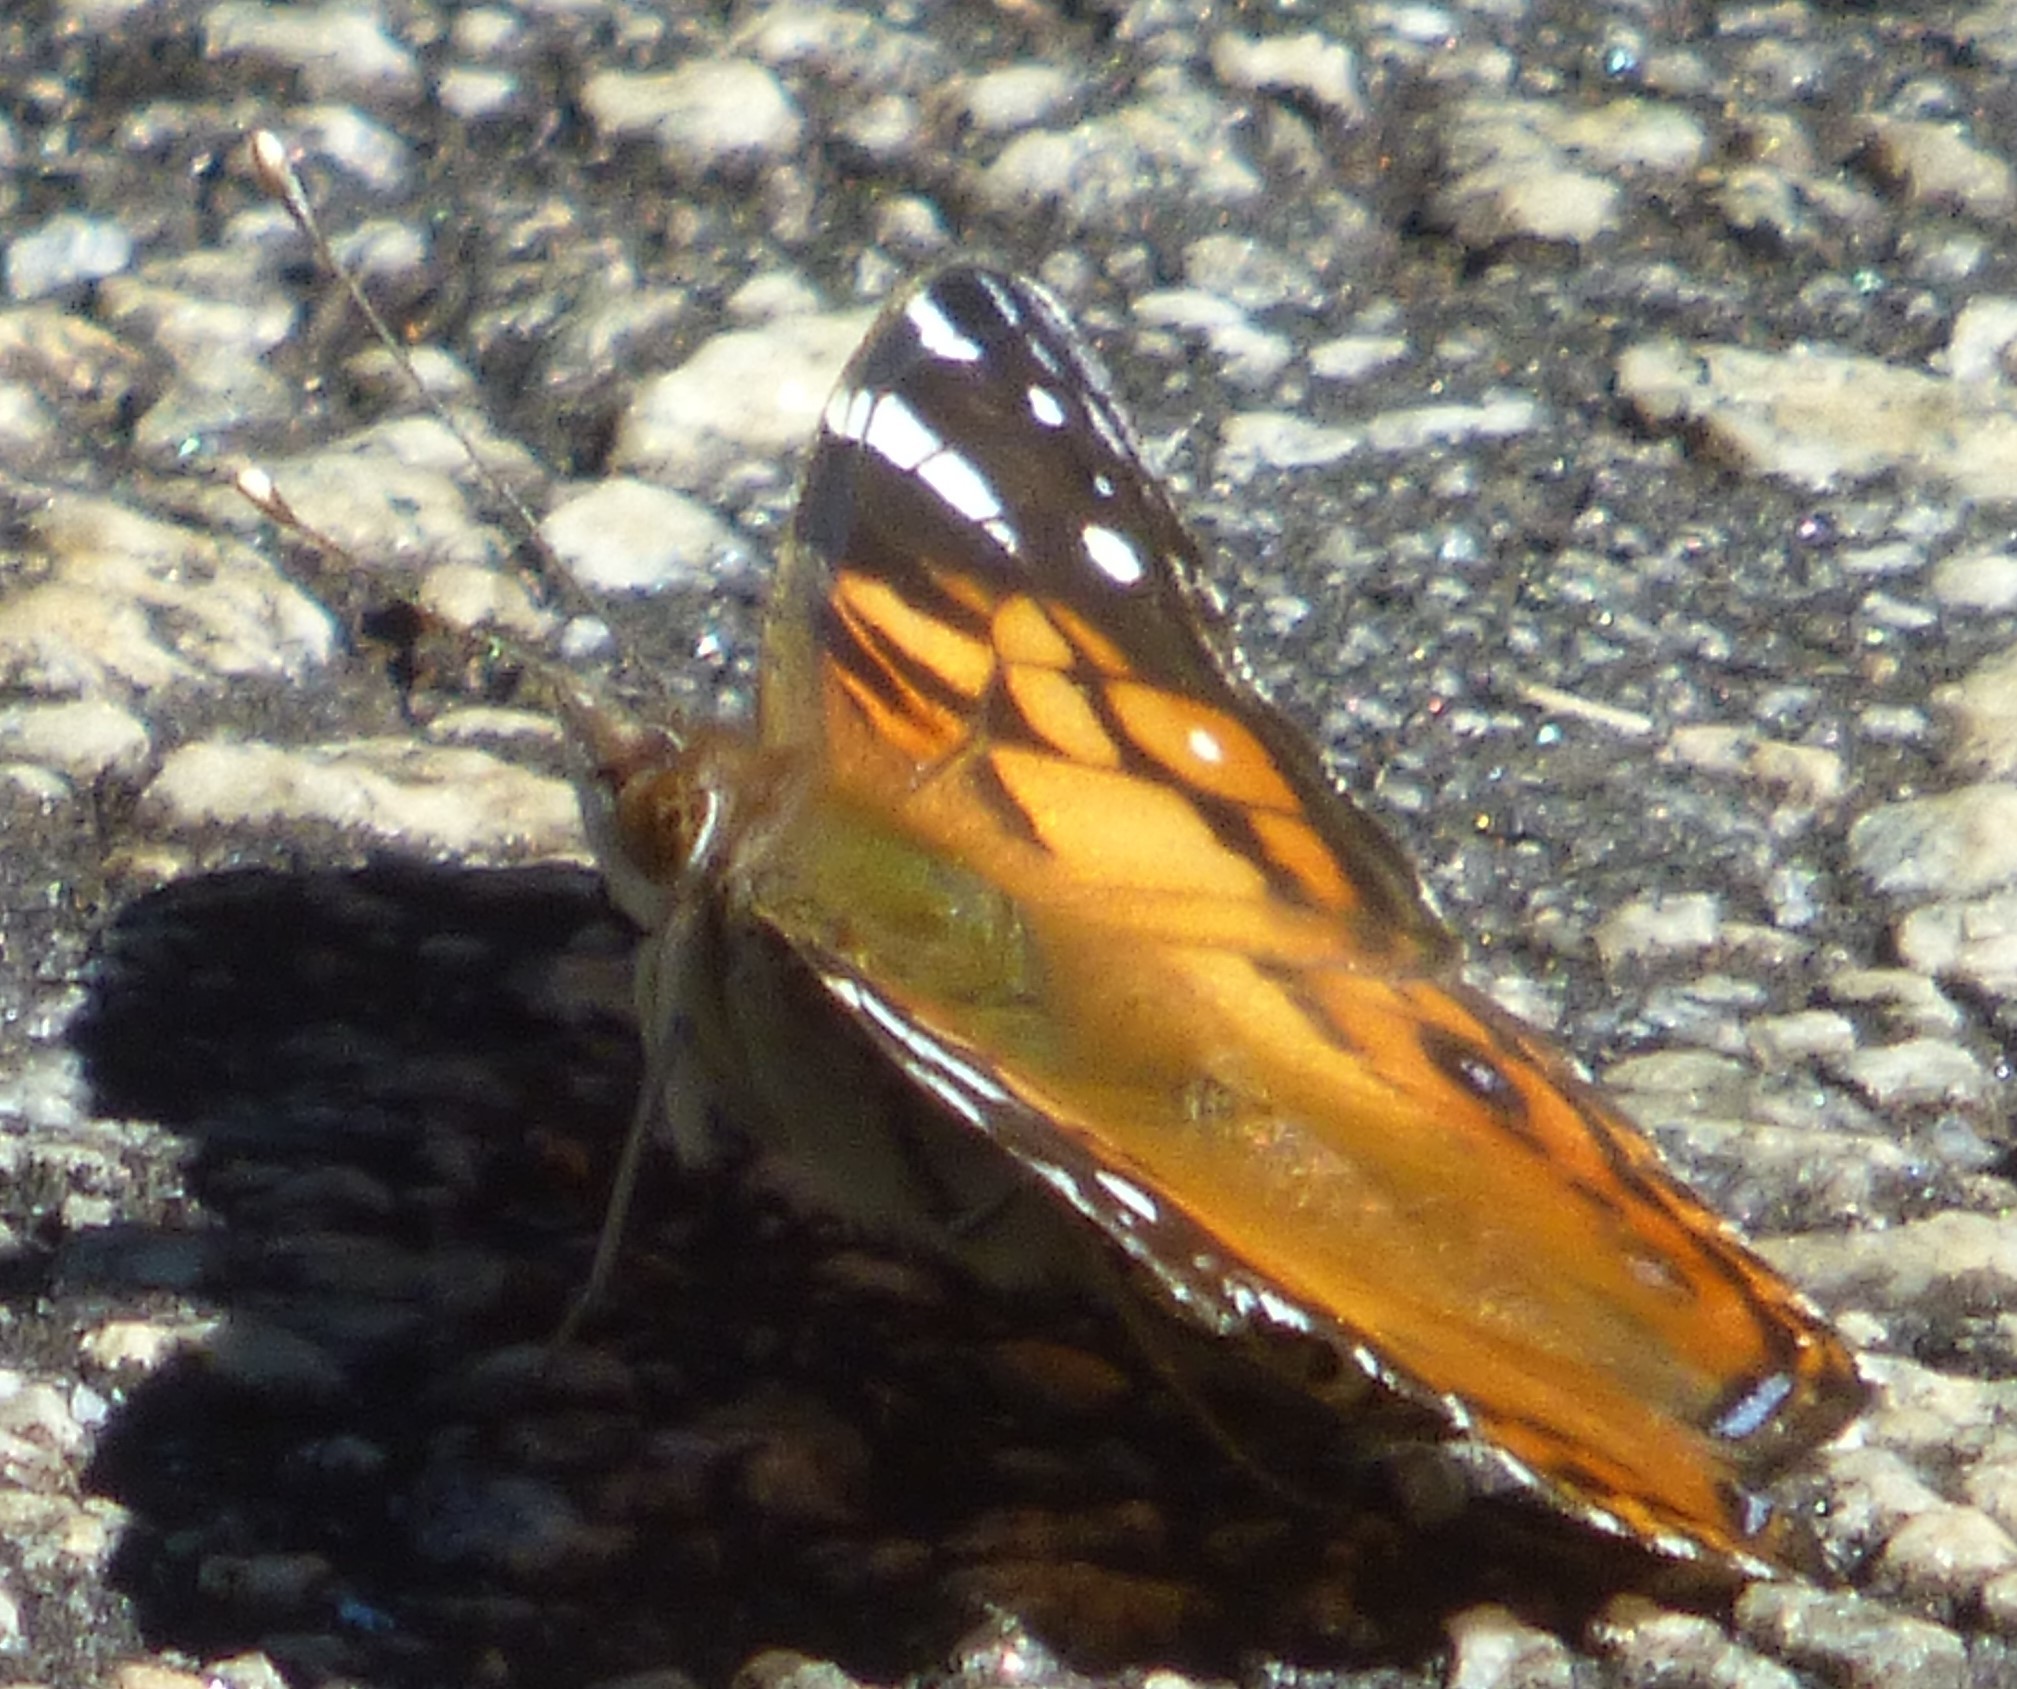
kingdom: Animalia
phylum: Arthropoda
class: Insecta
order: Lepidoptera
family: Nymphalidae
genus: Vanessa
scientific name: Vanessa virginiensis
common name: American lady
